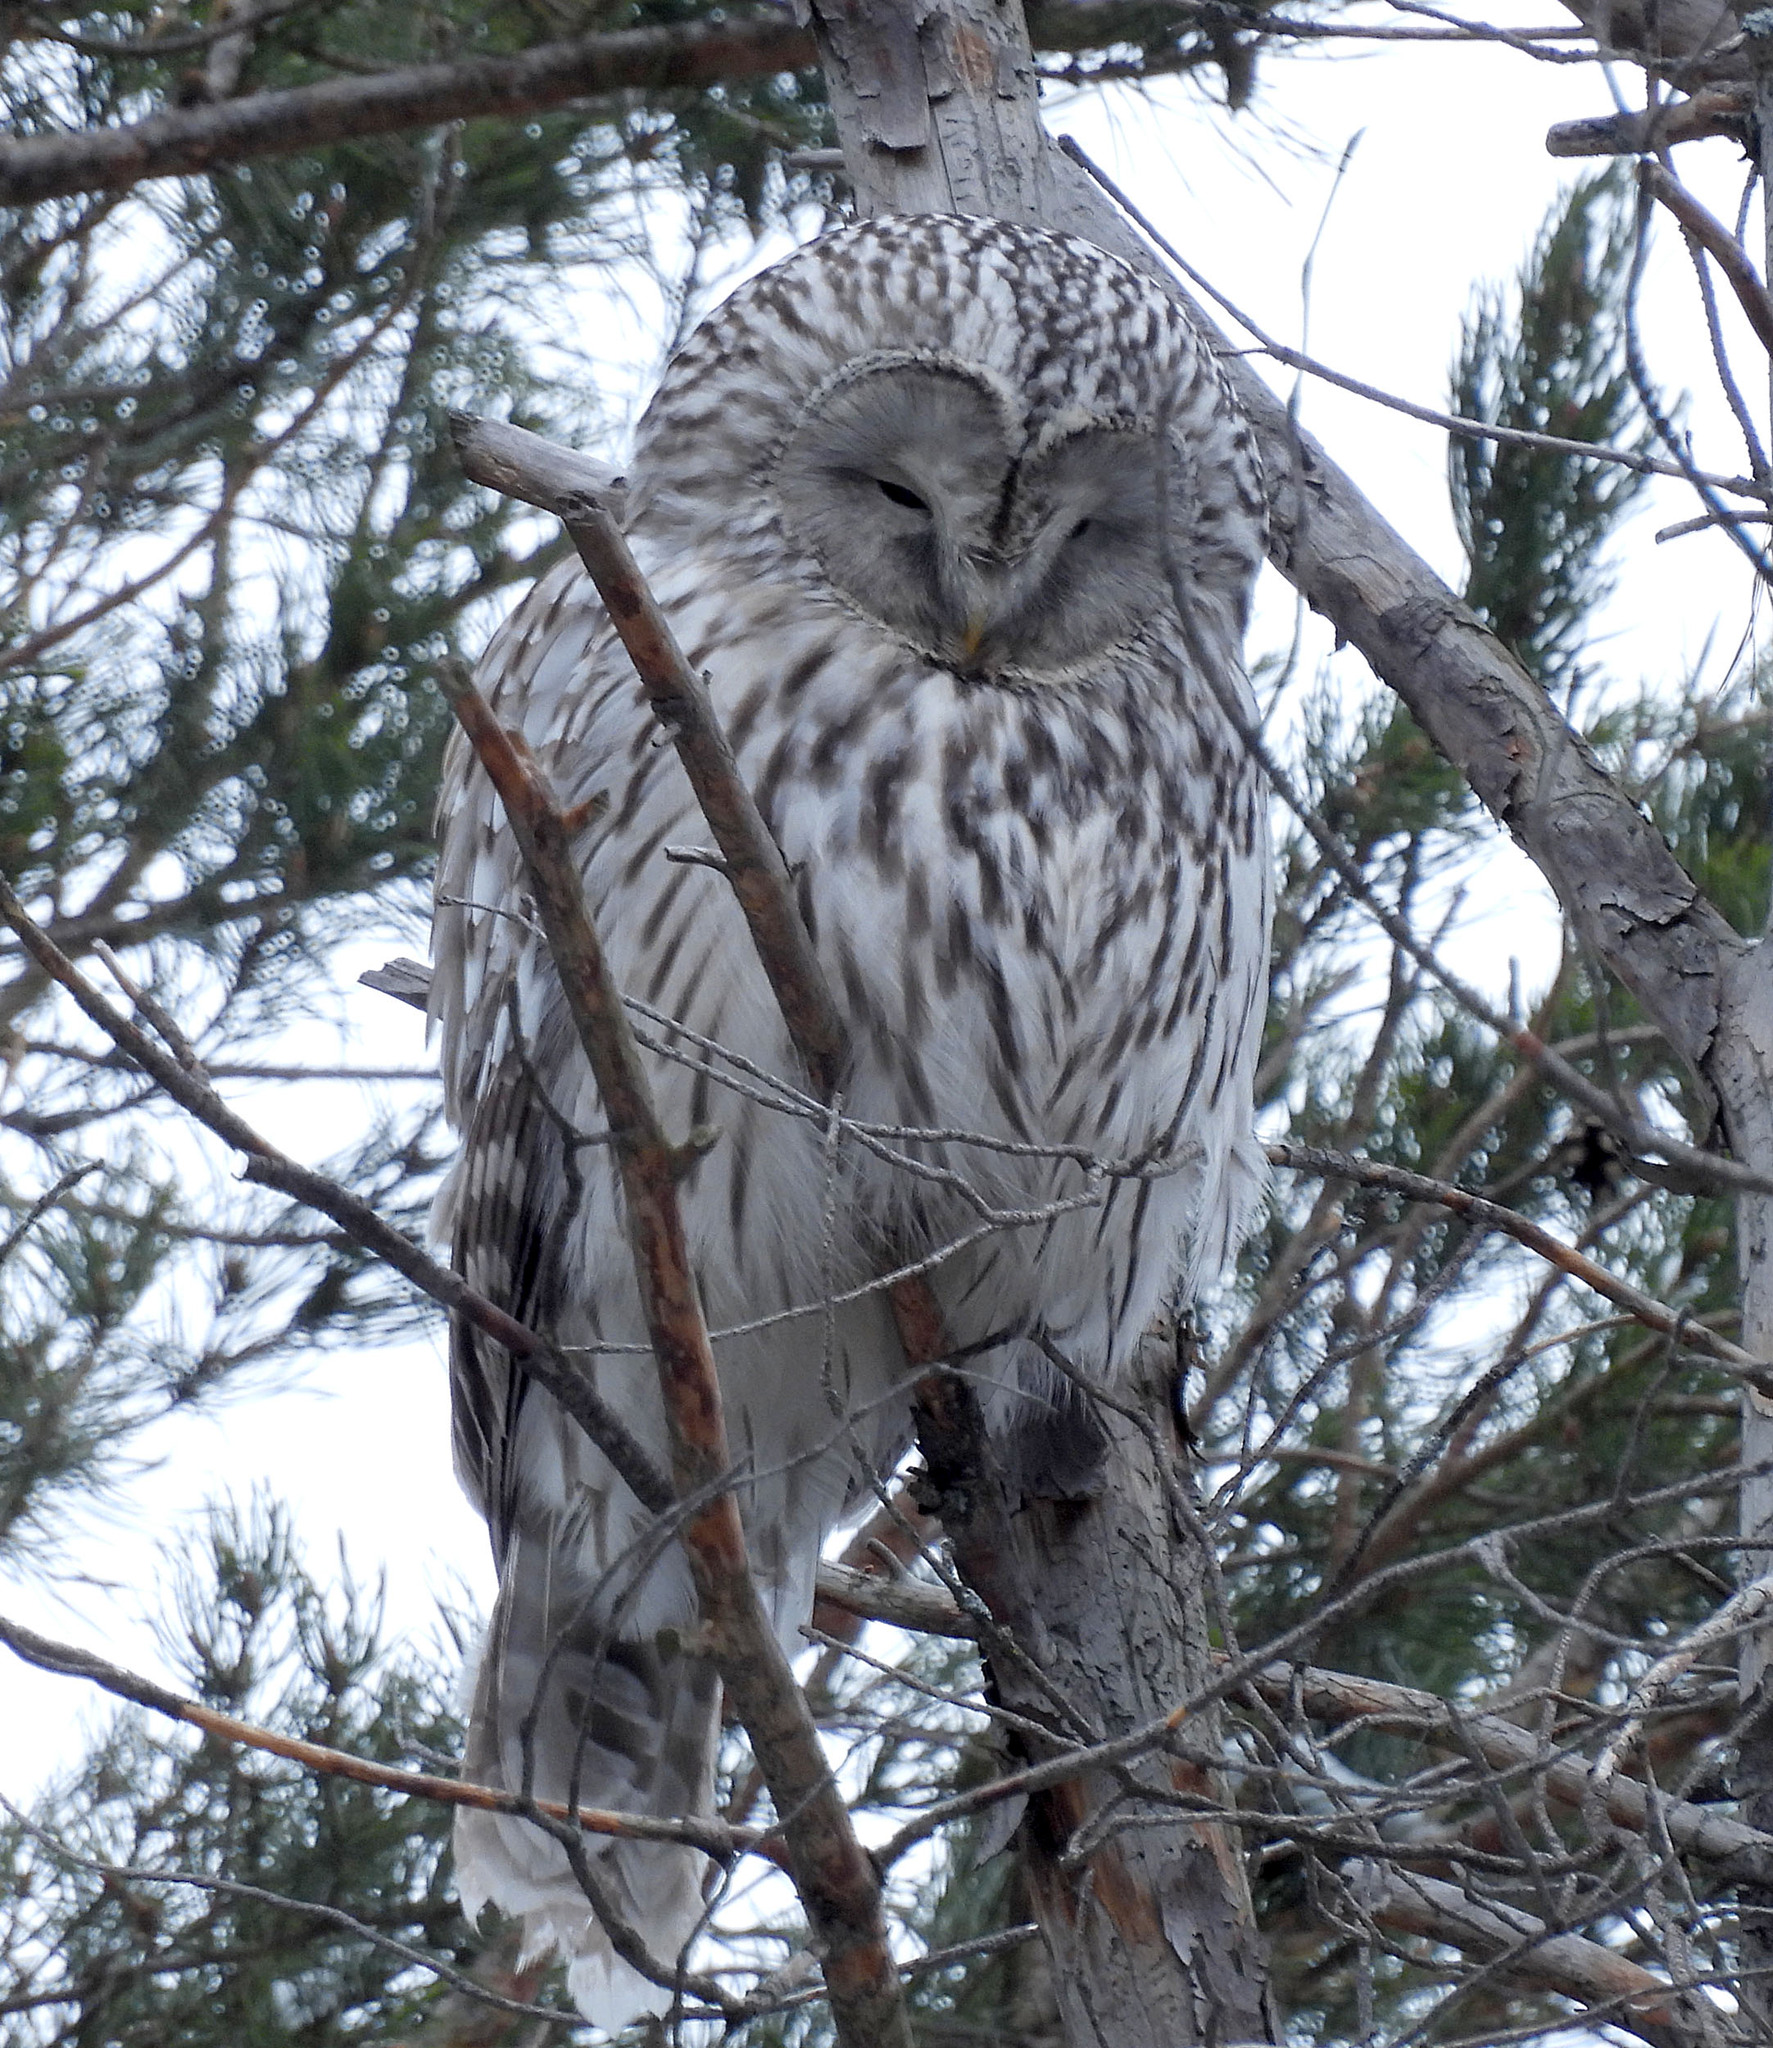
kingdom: Animalia
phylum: Chordata
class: Aves
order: Strigiformes
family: Strigidae
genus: Strix
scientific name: Strix uralensis
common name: Ural owl
